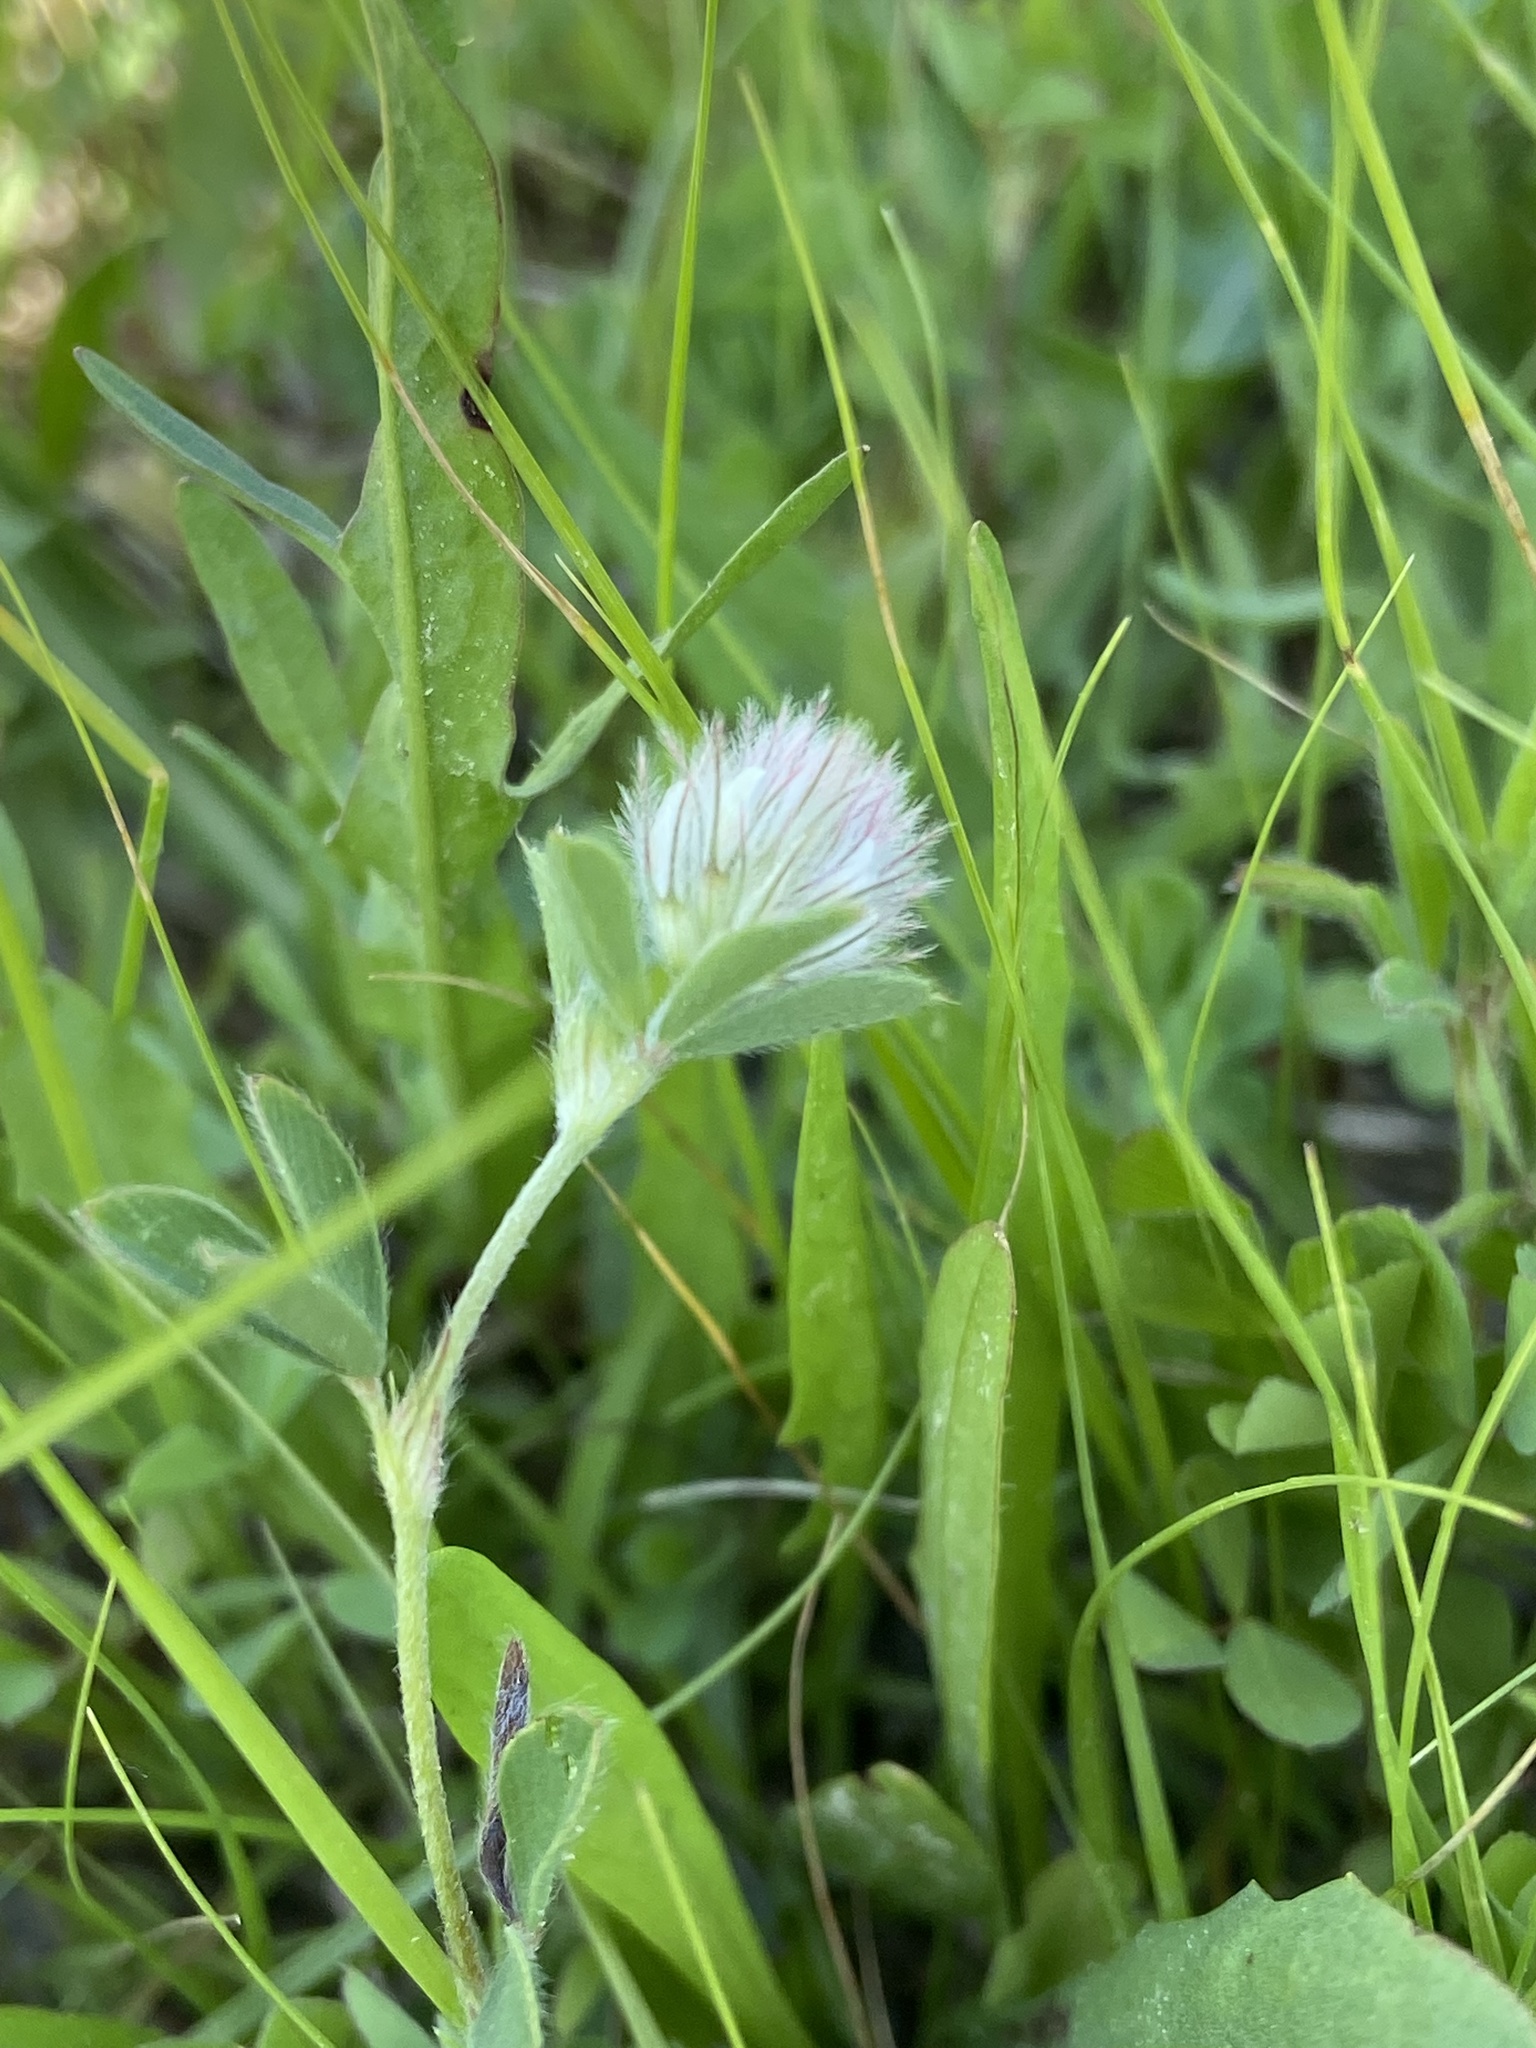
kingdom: Plantae
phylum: Tracheophyta
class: Magnoliopsida
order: Fabales
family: Fabaceae
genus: Trifolium
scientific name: Trifolium arvense
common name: Hare's-foot clover
